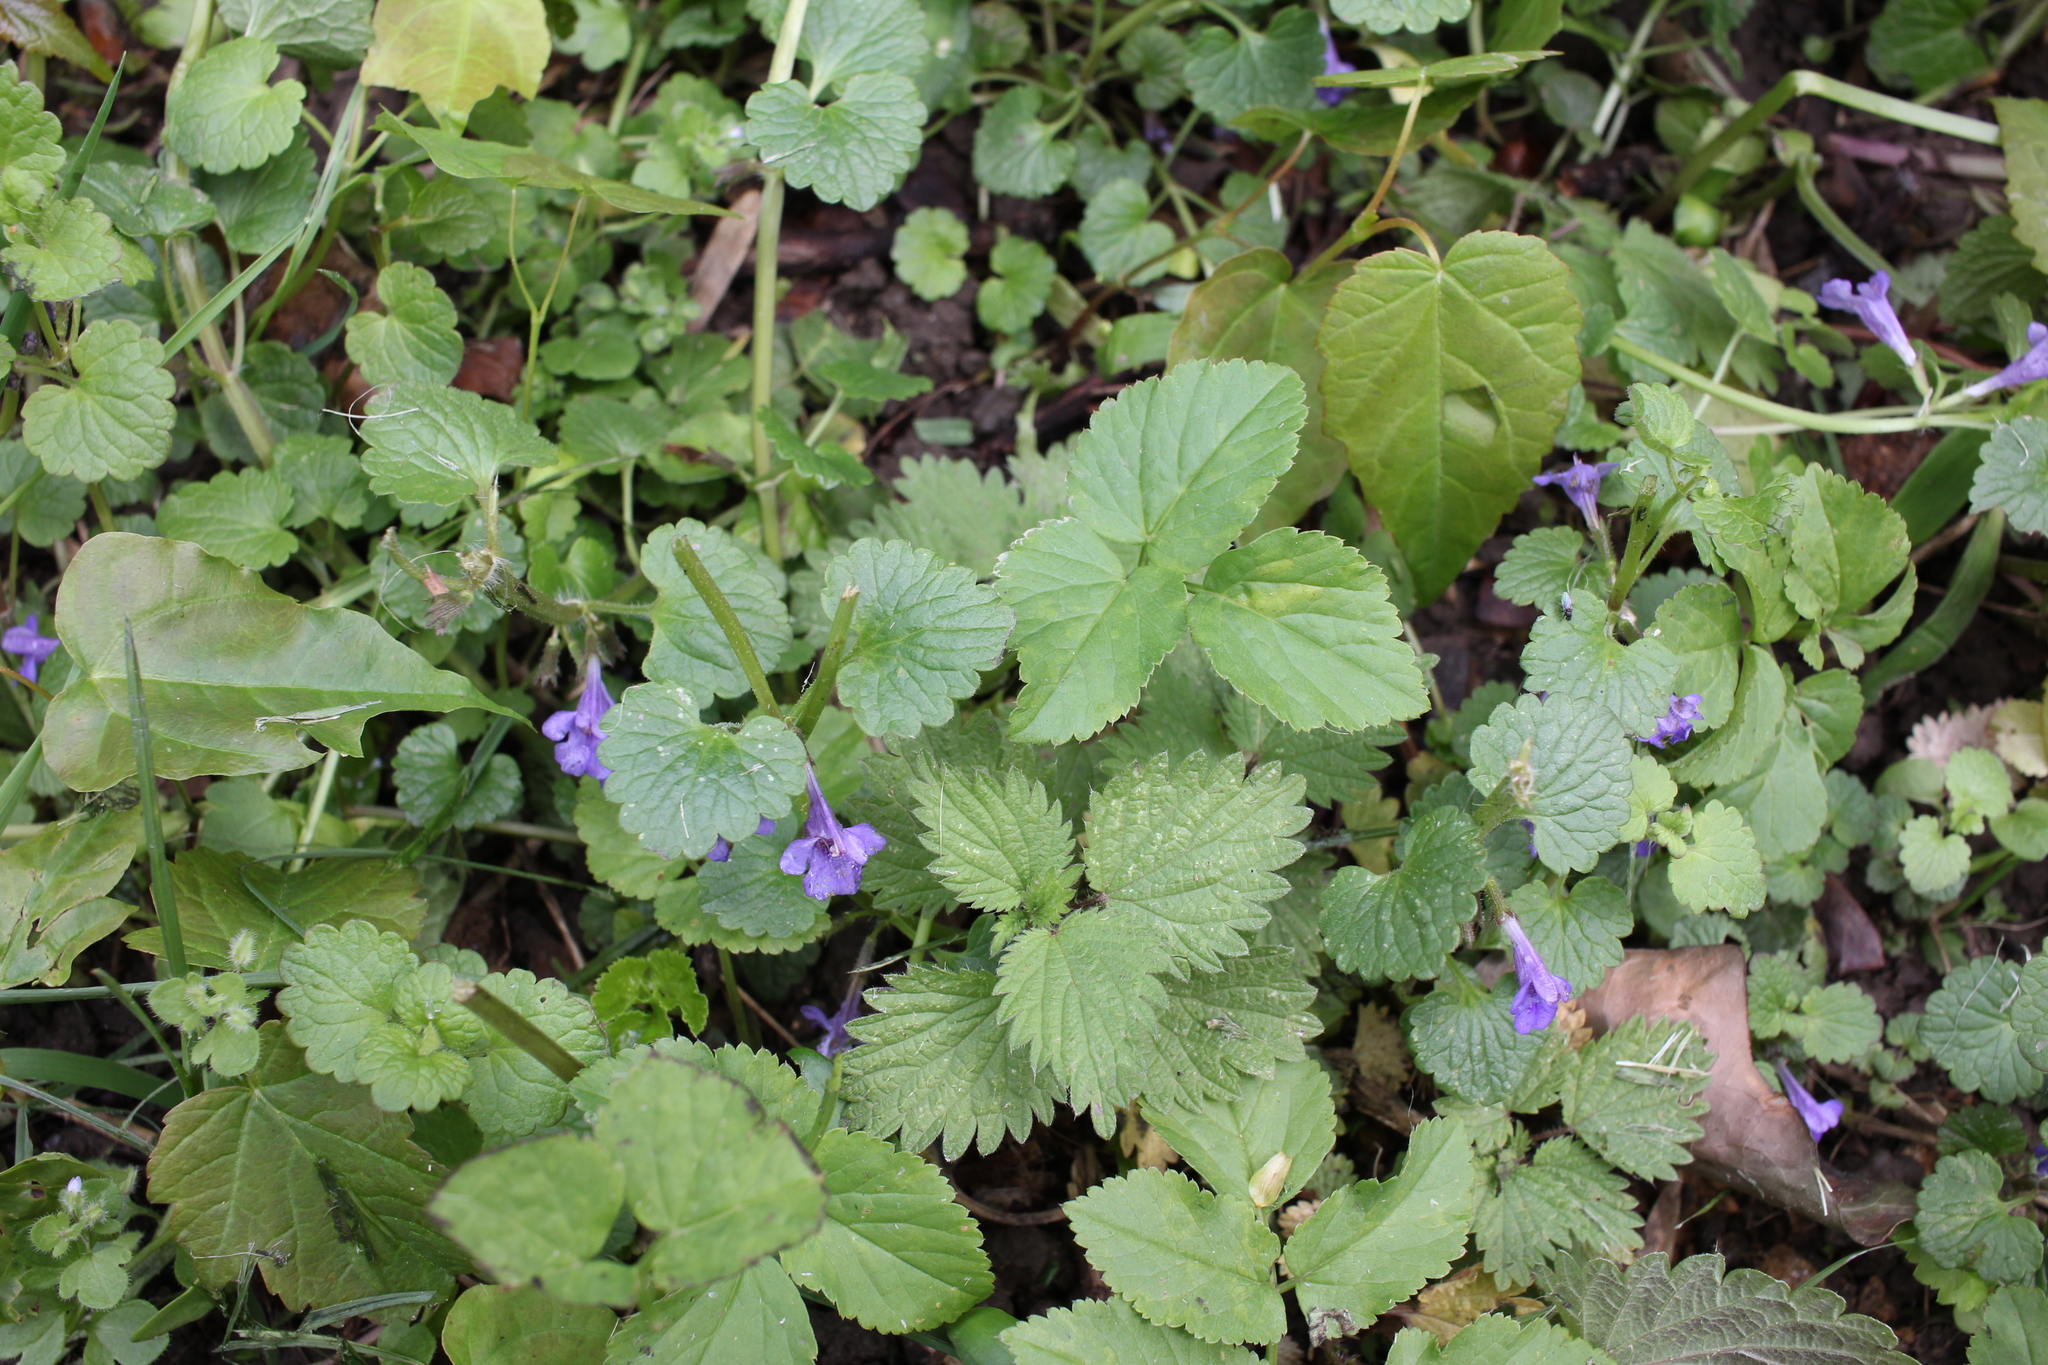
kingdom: Plantae
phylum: Tracheophyta
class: Magnoliopsida
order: Lamiales
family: Lamiaceae
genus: Glechoma
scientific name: Glechoma hederacea
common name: Ground ivy
